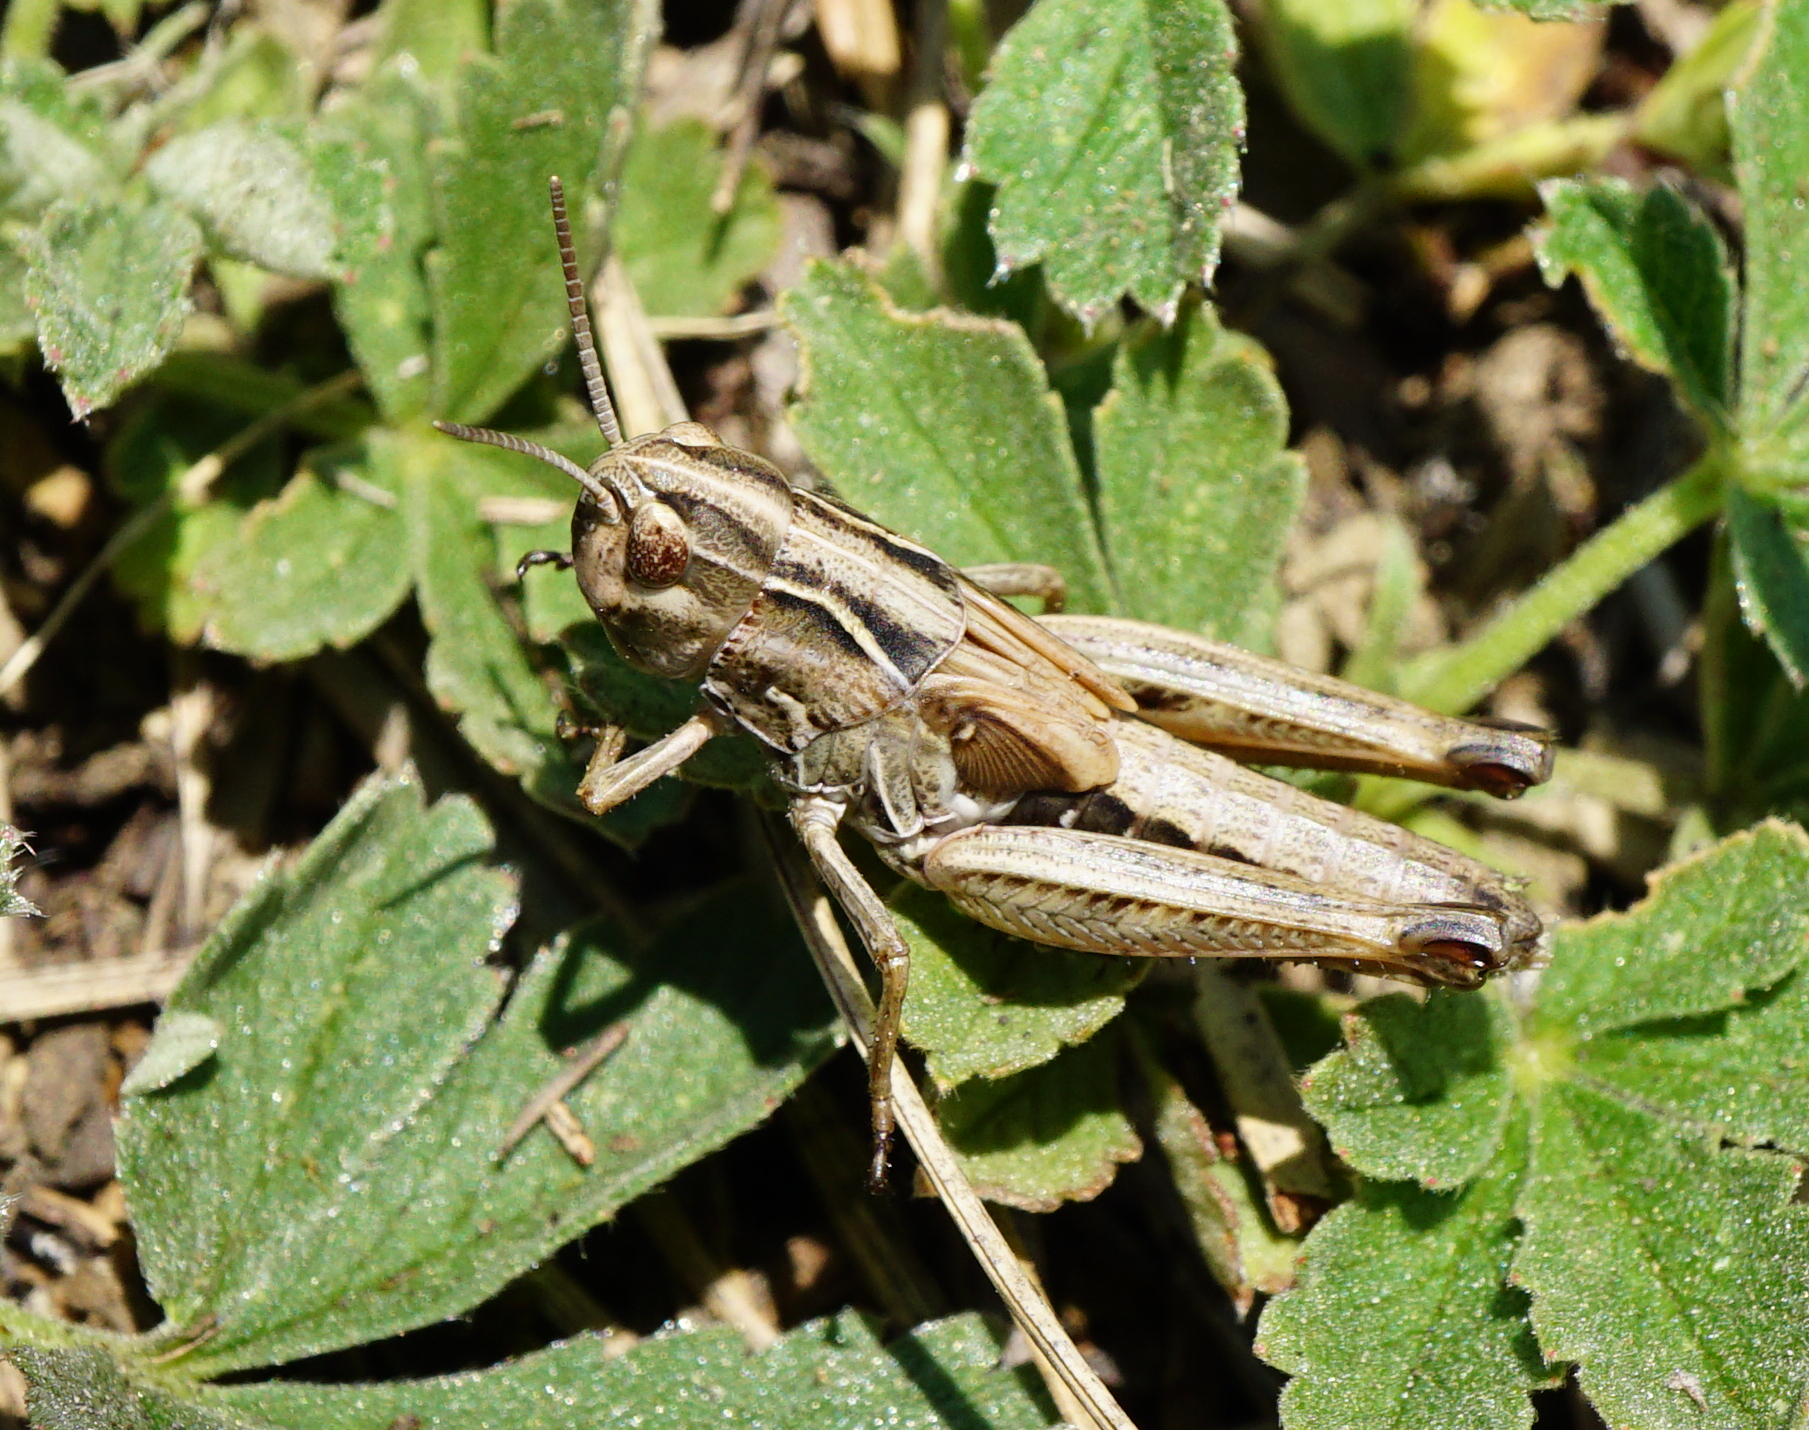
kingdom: Animalia
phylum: Arthropoda
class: Insecta
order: Orthoptera
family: Acrididae
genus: Stenobothrus
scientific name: Stenobothrus
